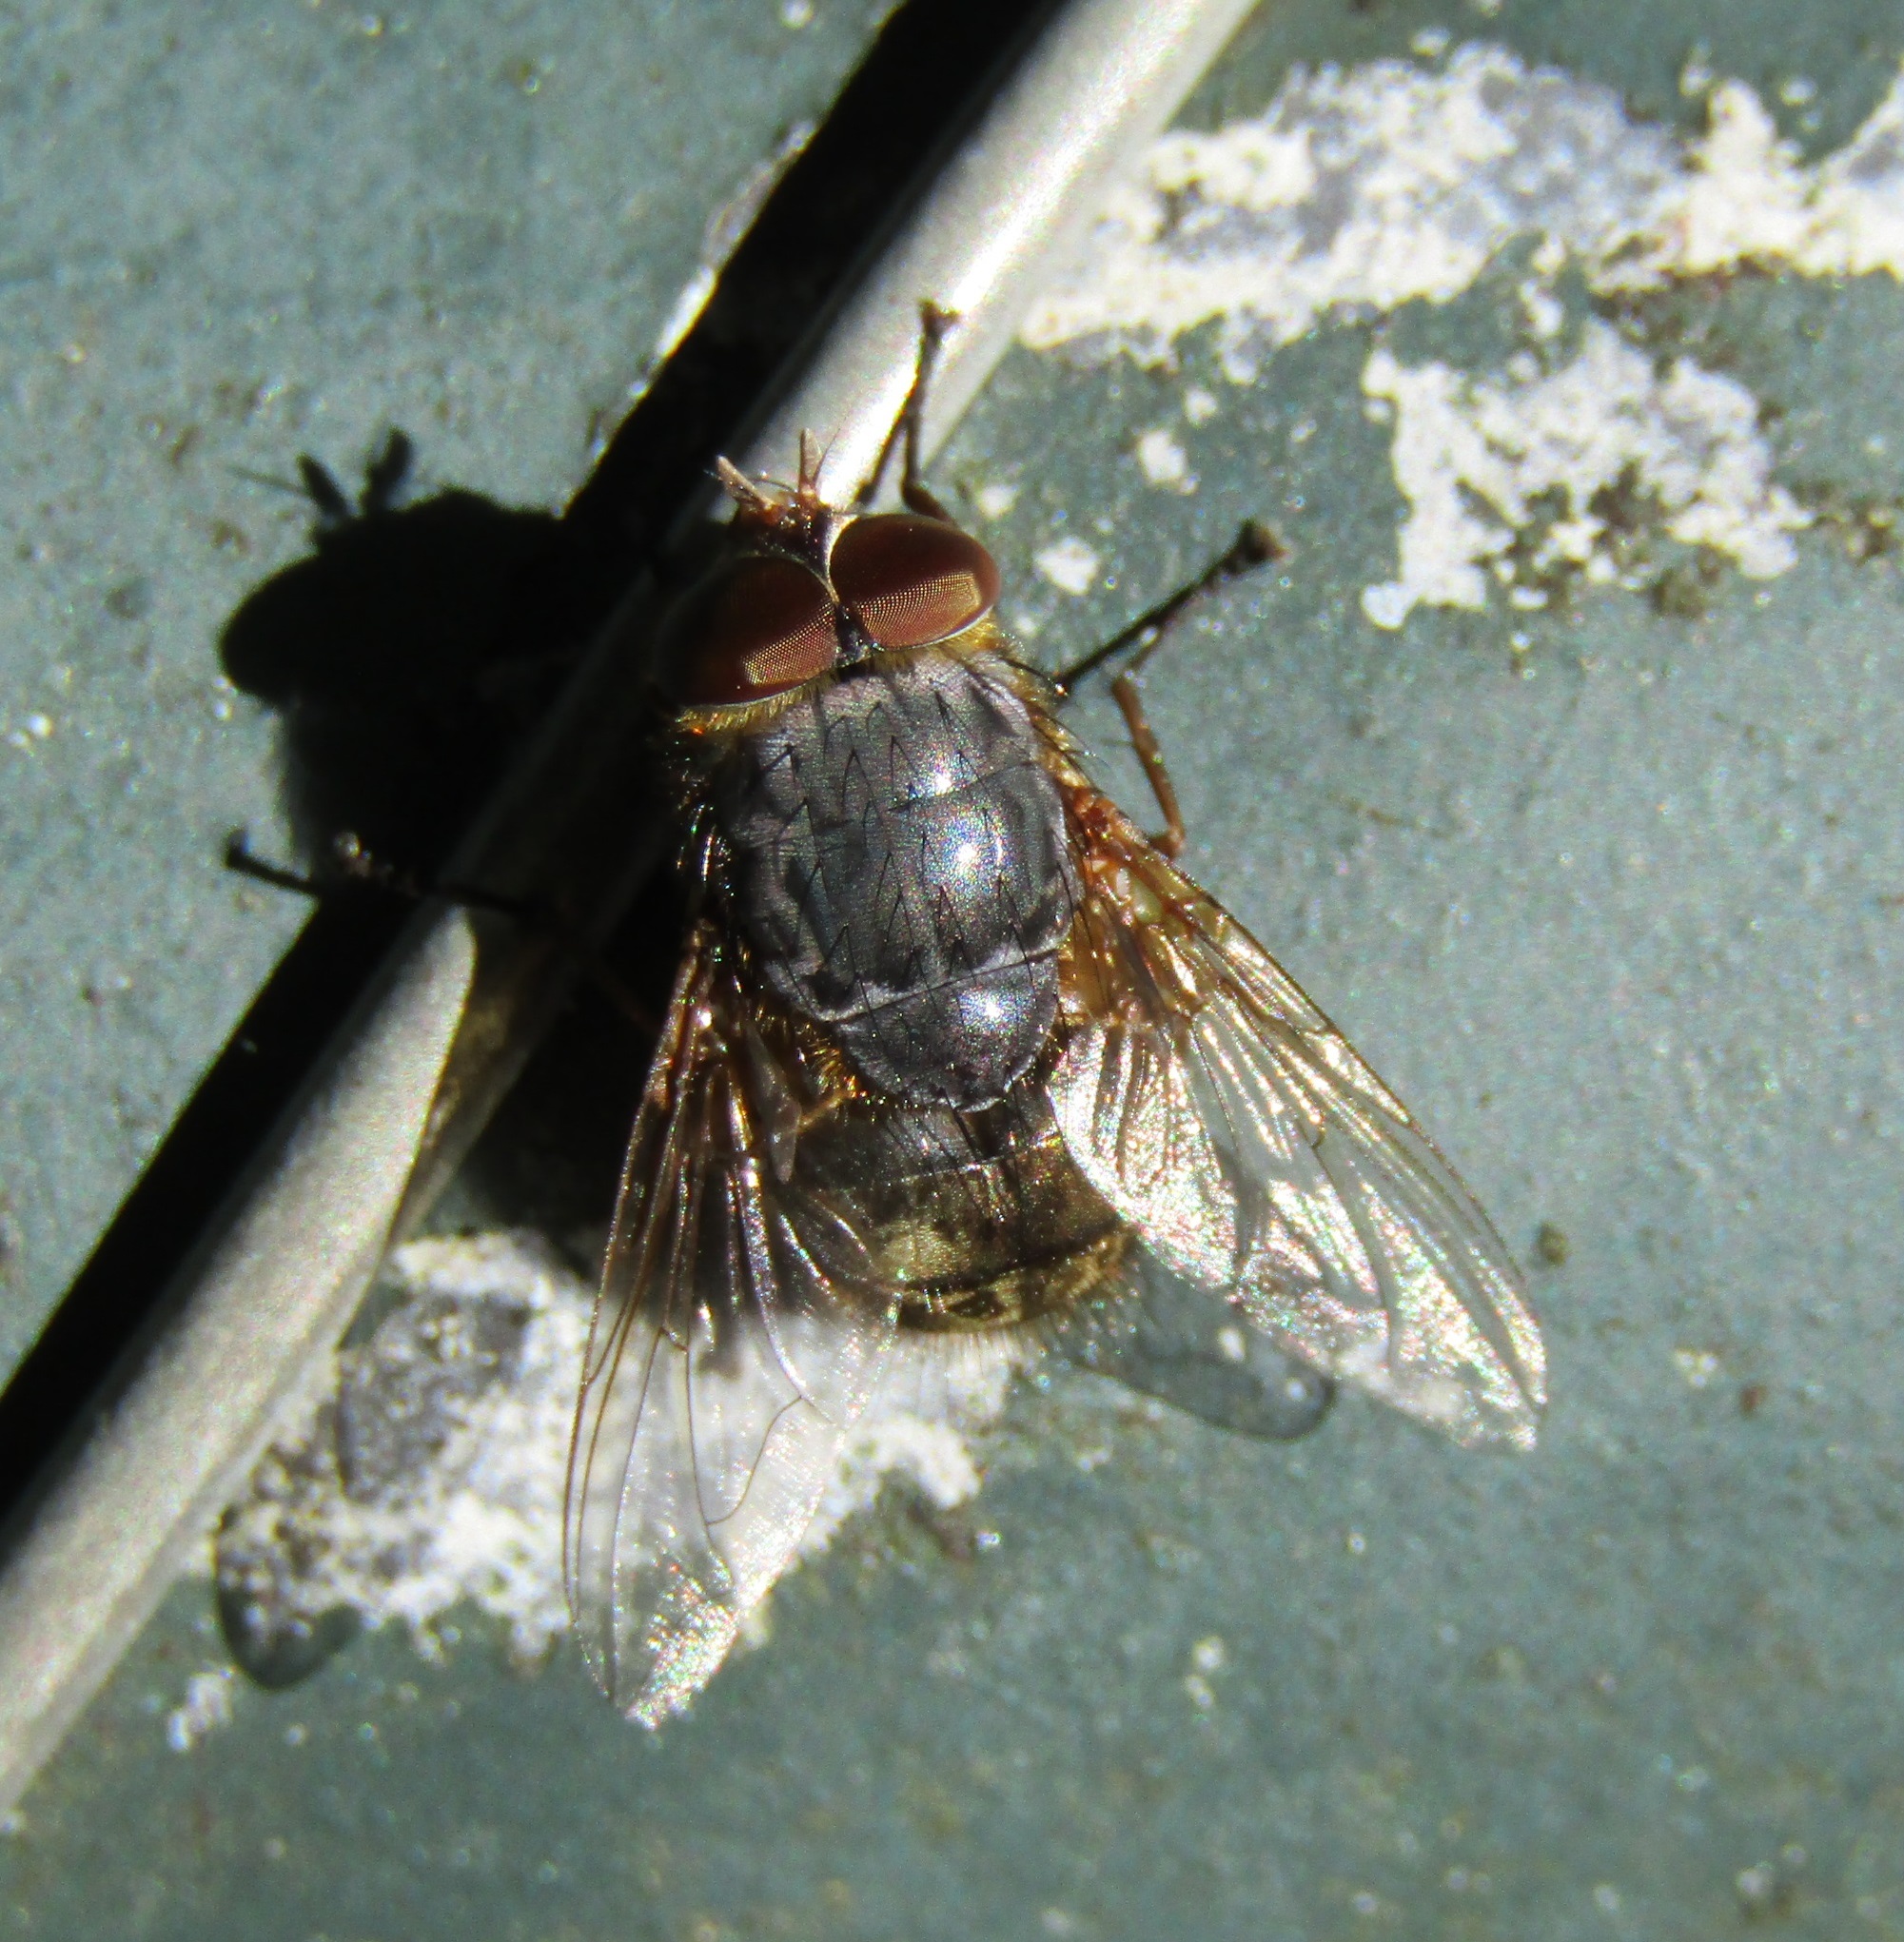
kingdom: Animalia
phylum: Arthropoda
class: Insecta
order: Diptera
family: Calliphoridae
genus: Calliphora
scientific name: Calliphora stygia
